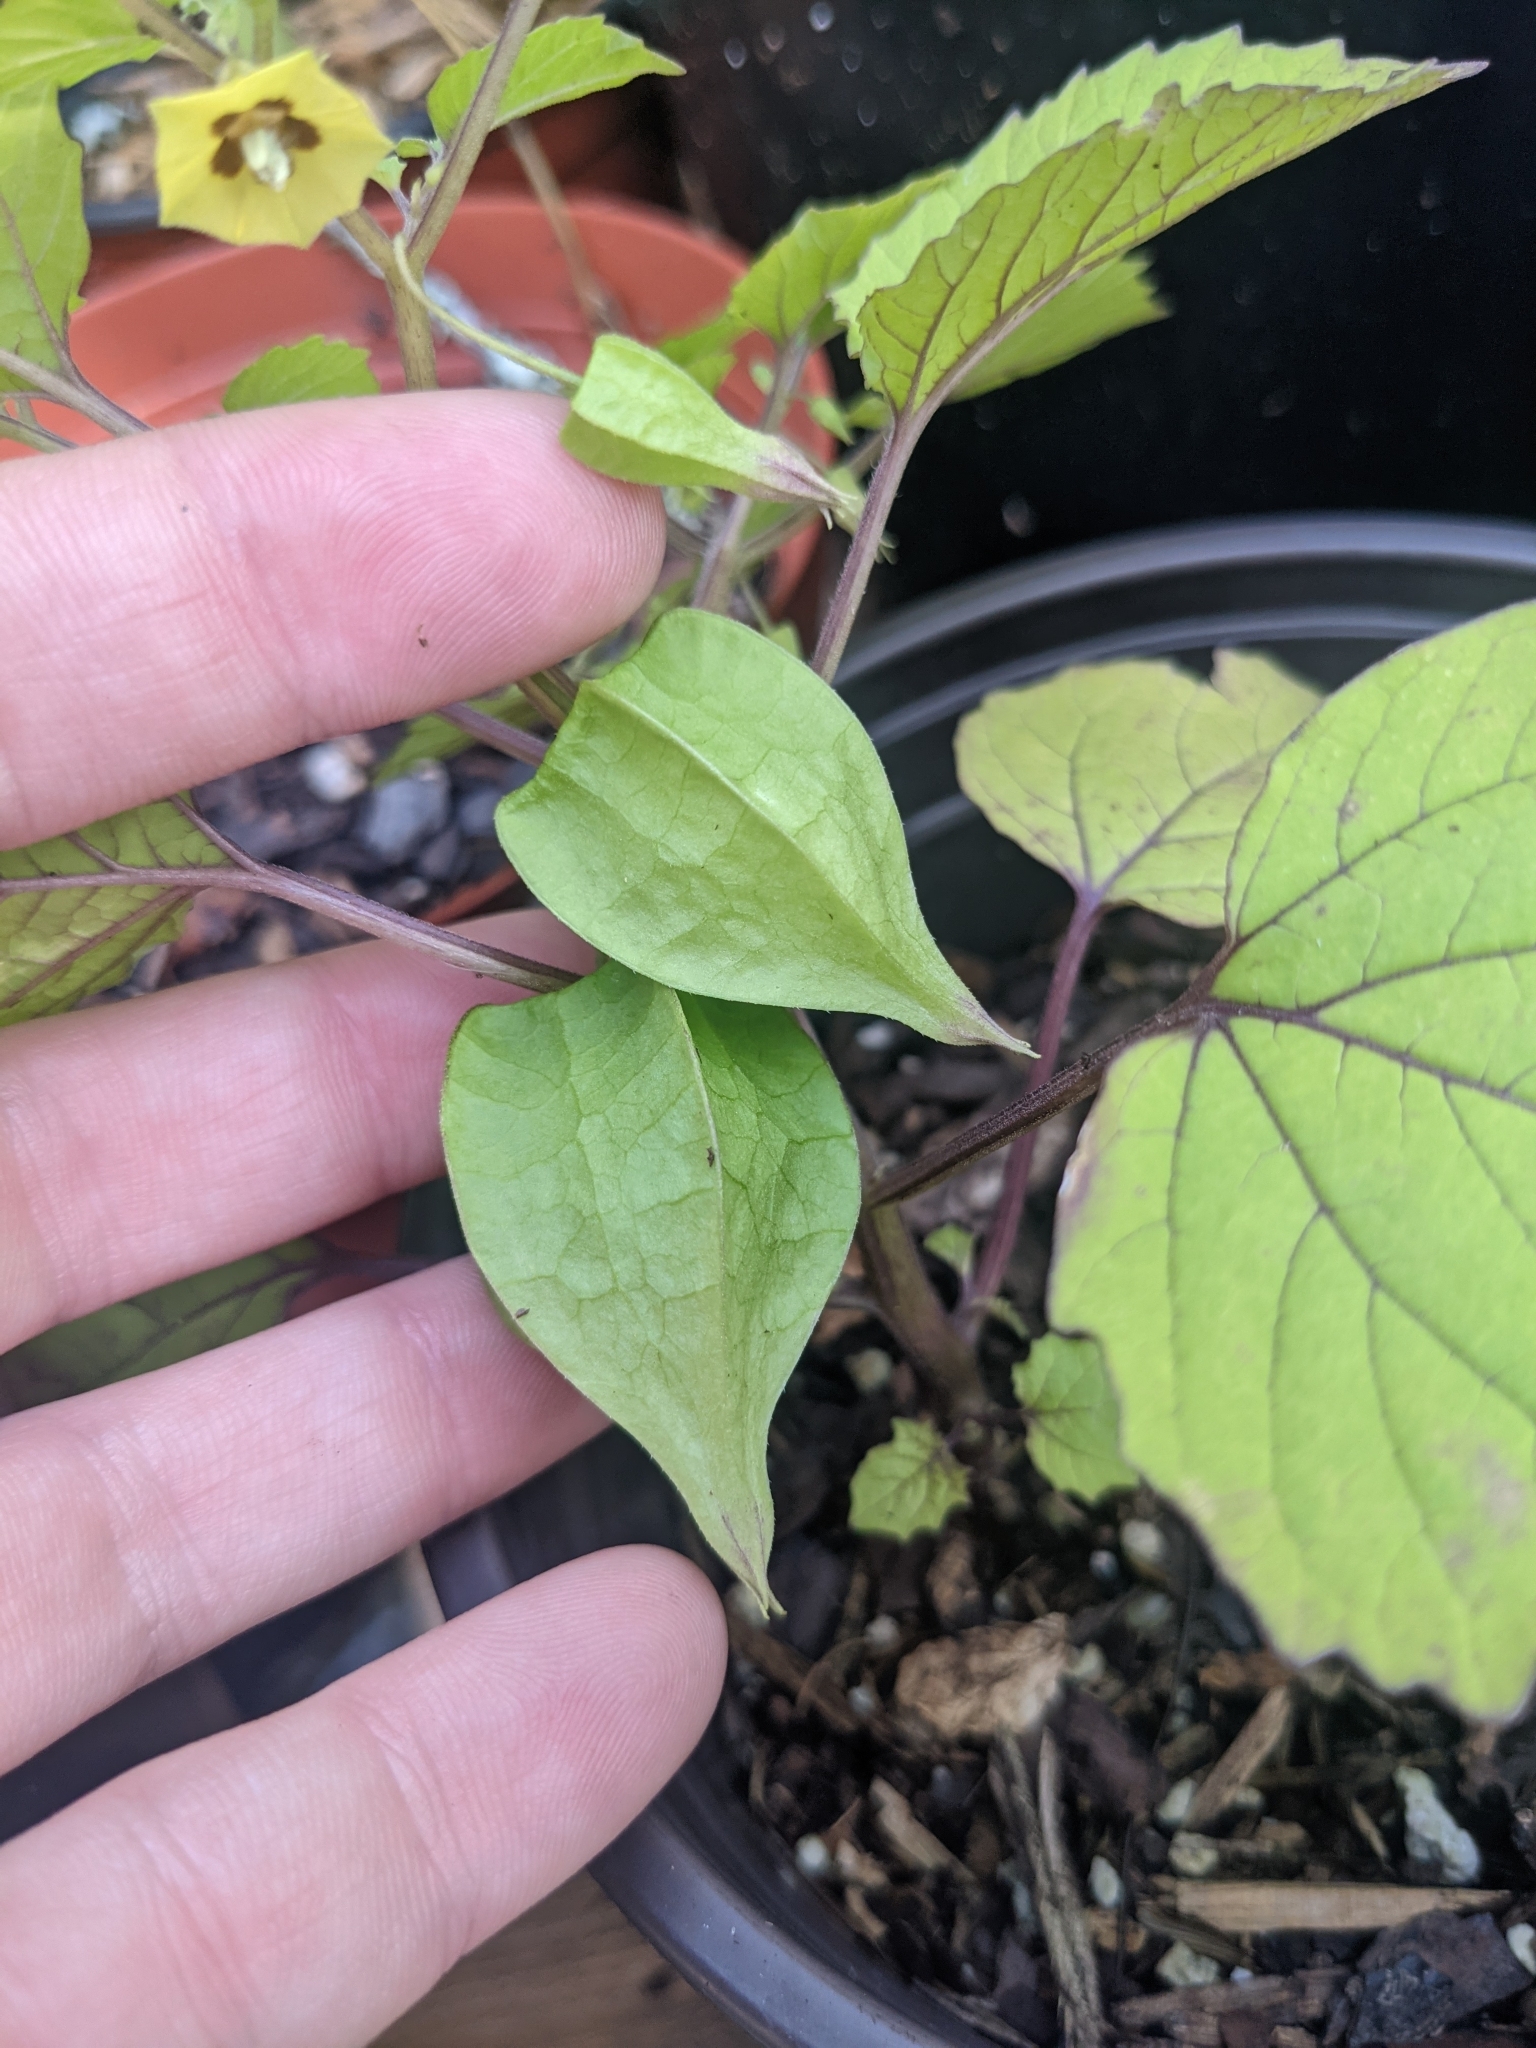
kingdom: Plantae
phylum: Tracheophyta
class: Magnoliopsida
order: Solanales
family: Solanaceae
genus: Physalis
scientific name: Physalis cordata
